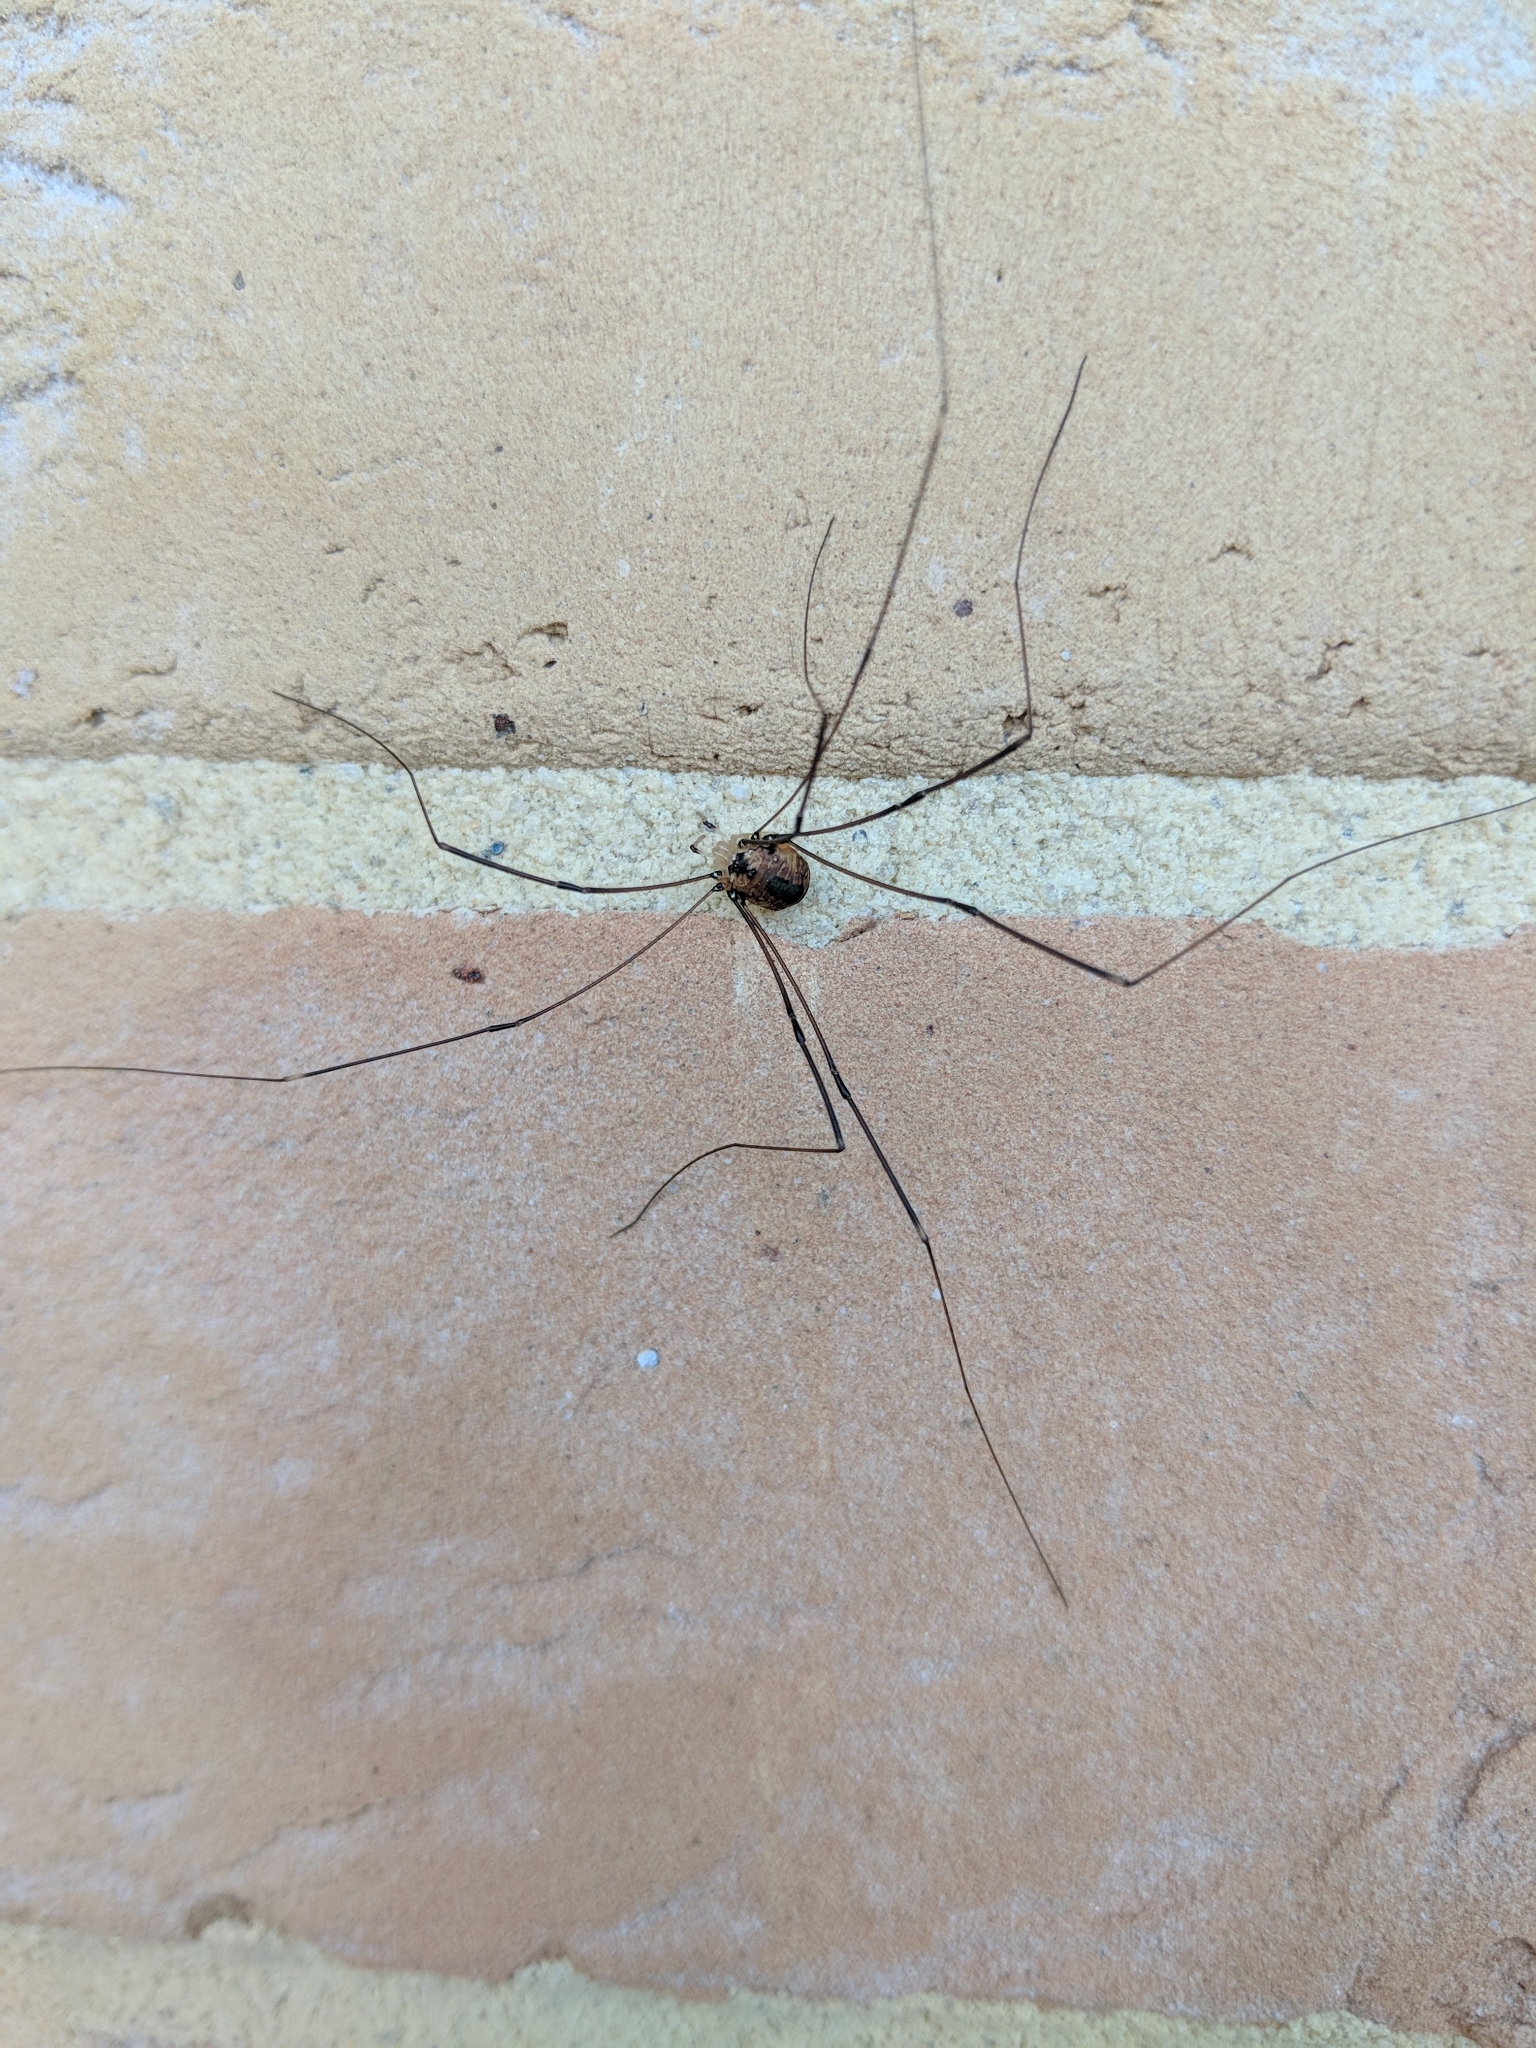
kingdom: Animalia
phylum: Arthropoda
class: Arachnida
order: Opiliones
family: Sclerosomatidae
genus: Leiobunum
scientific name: Leiobunum rotundum
